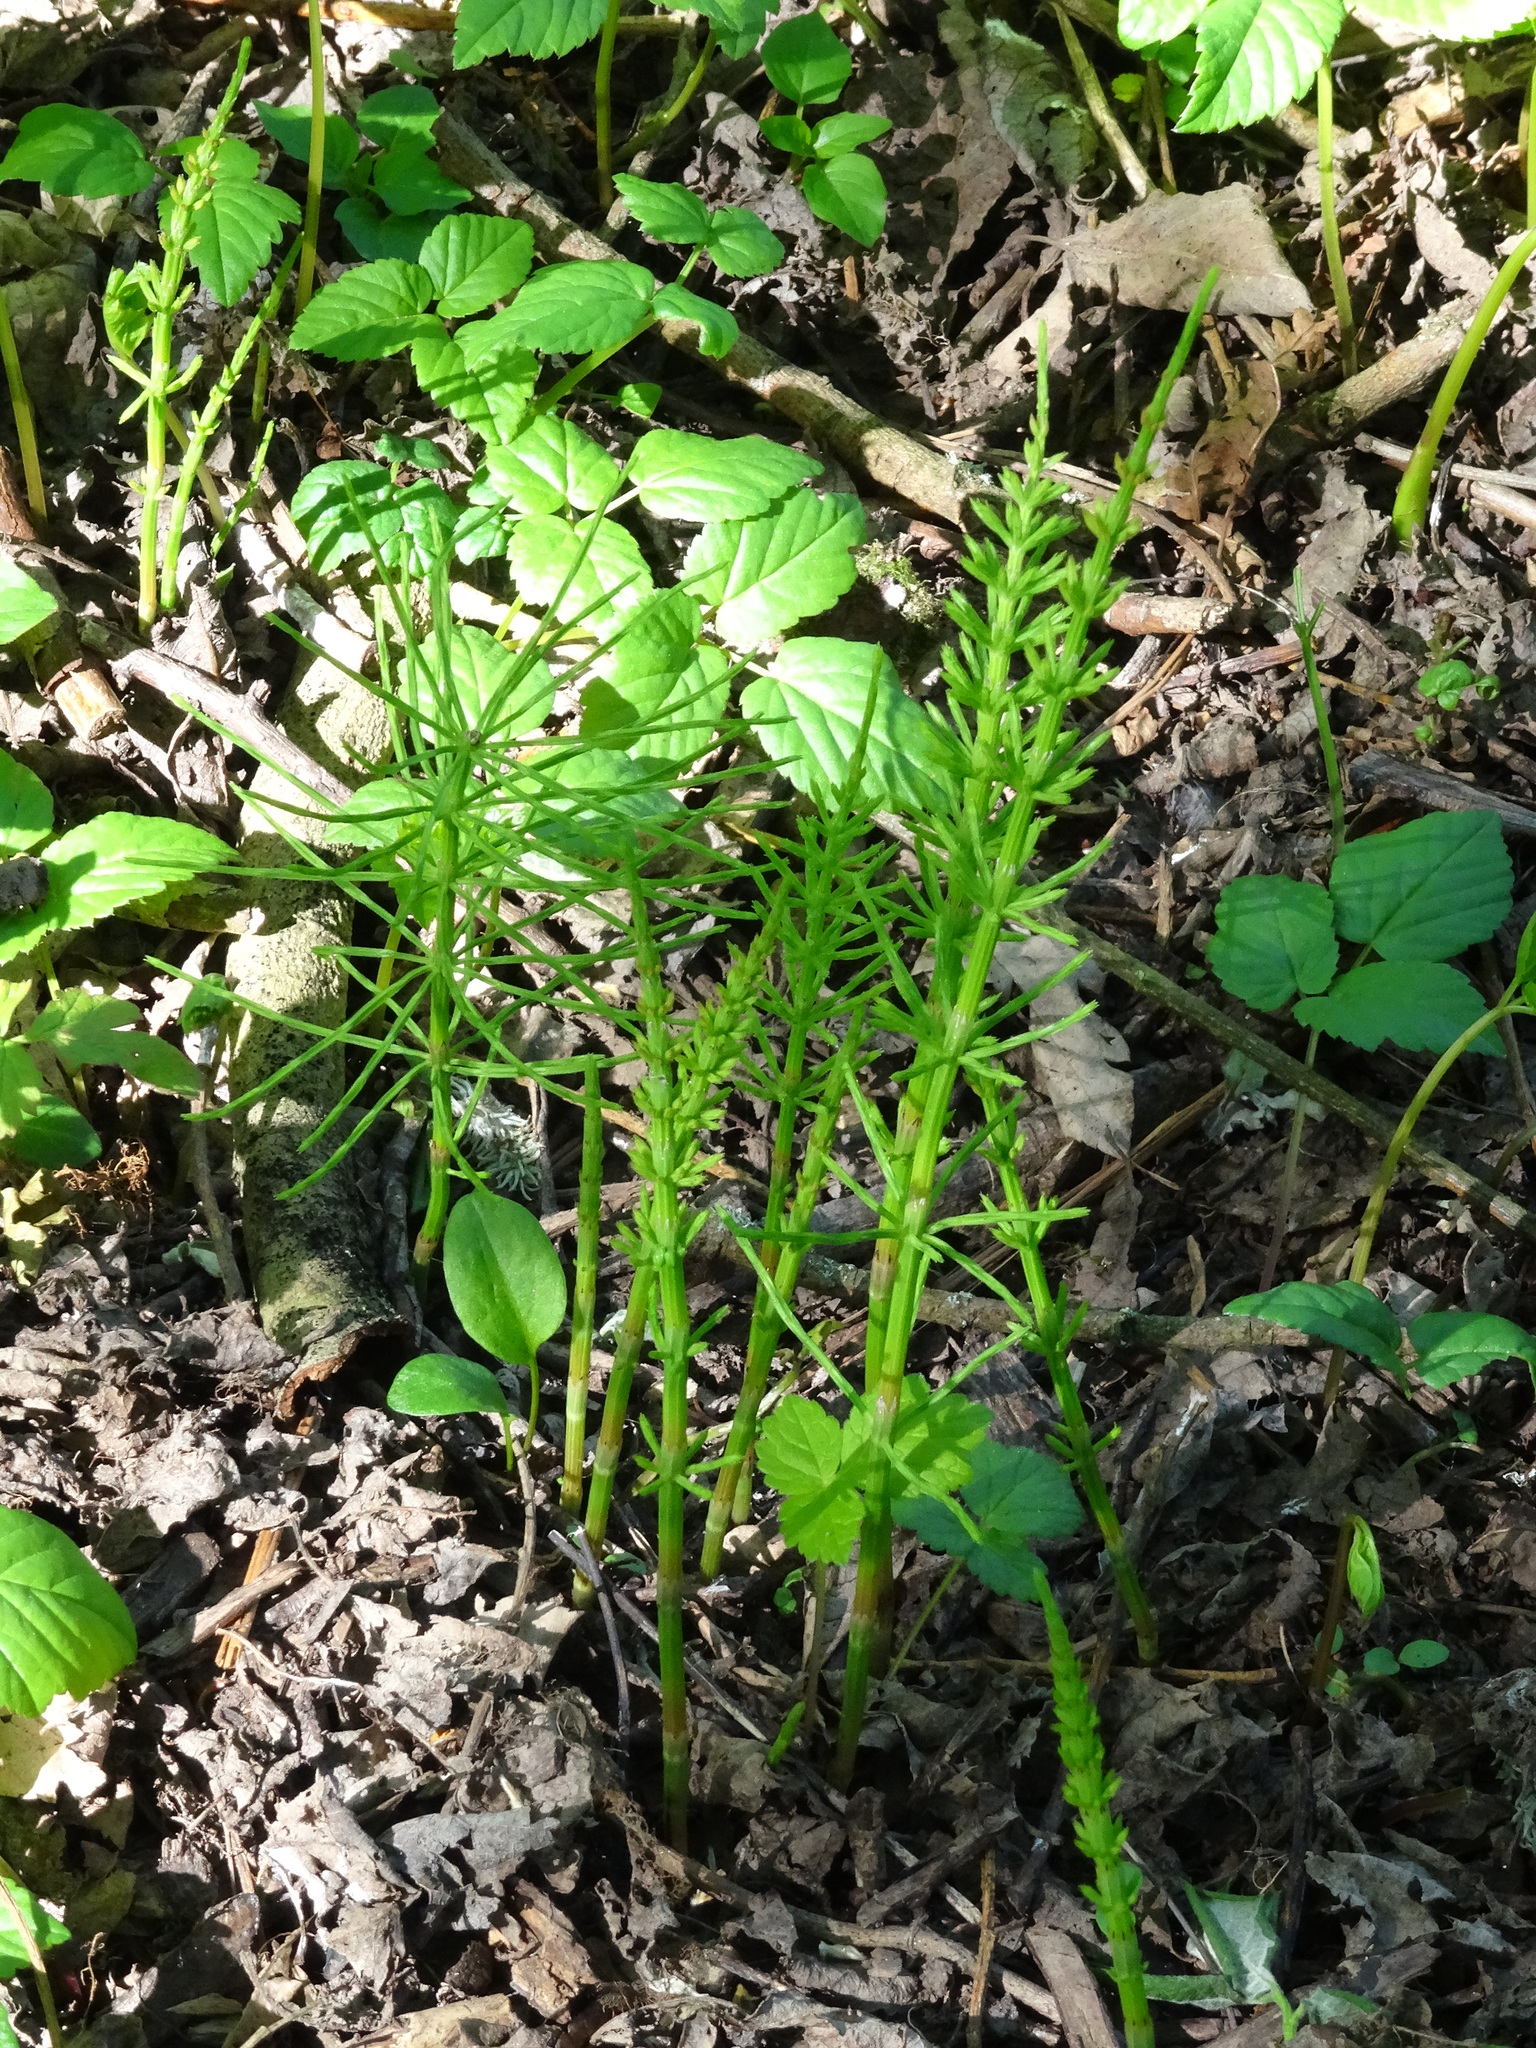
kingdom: Plantae
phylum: Tracheophyta
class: Polypodiopsida
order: Equisetales
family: Equisetaceae
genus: Equisetum
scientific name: Equisetum arvense
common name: Field horsetail
